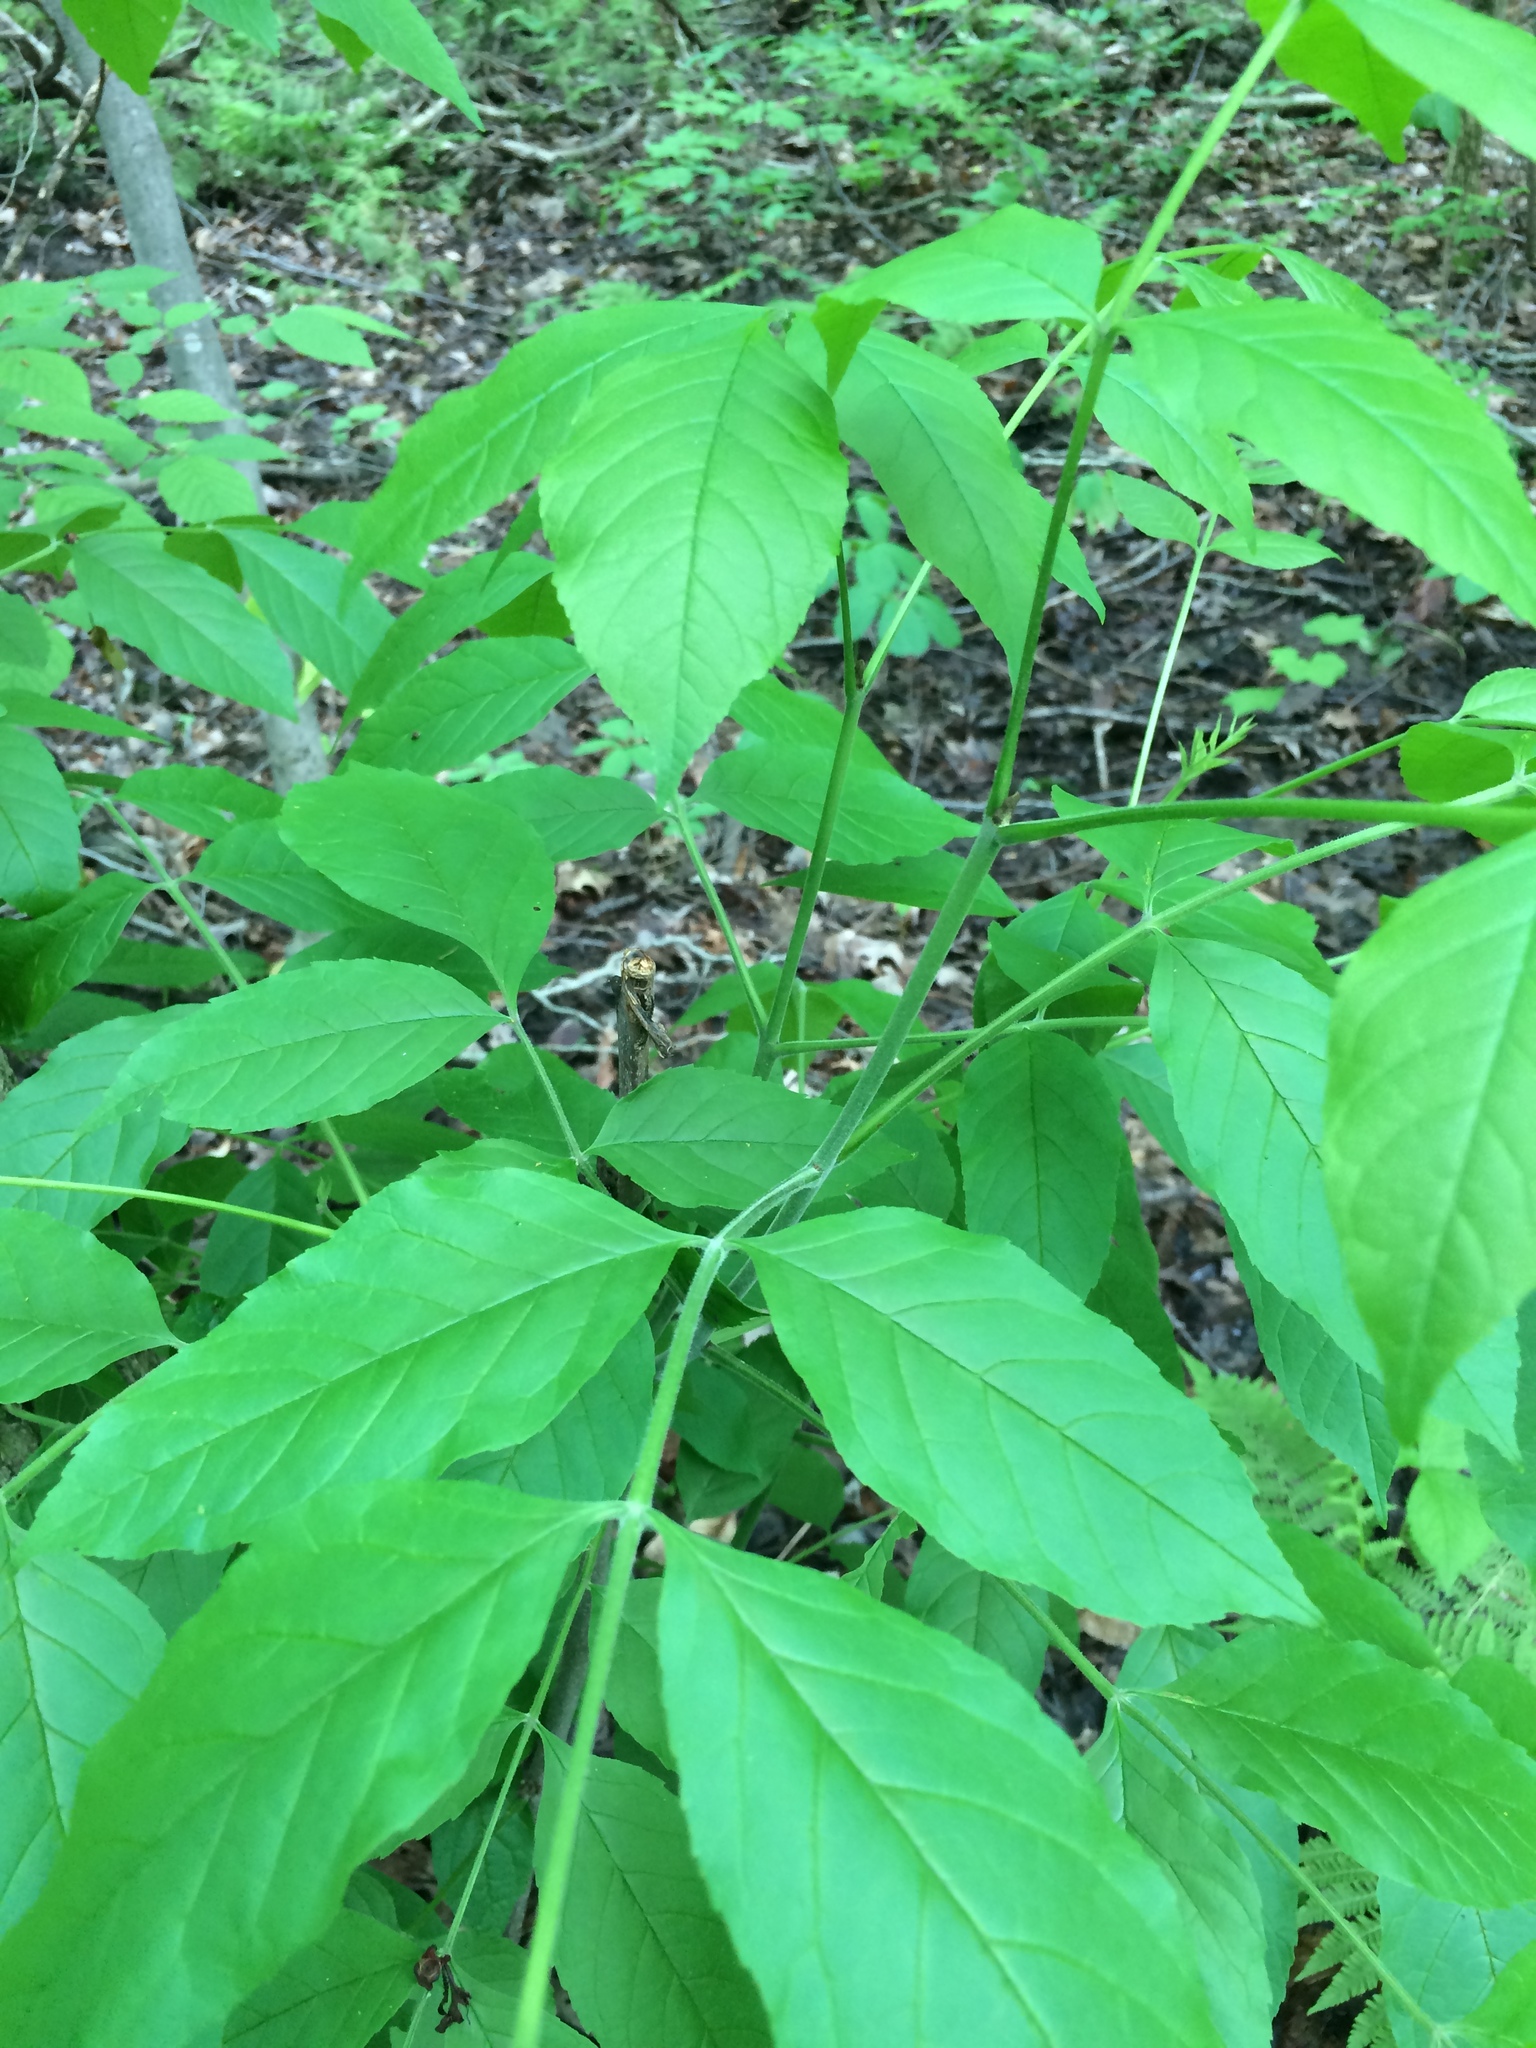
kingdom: Plantae
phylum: Tracheophyta
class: Magnoliopsida
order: Lamiales
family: Oleaceae
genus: Fraxinus
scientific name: Fraxinus pennsylvanica
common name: Green ash
